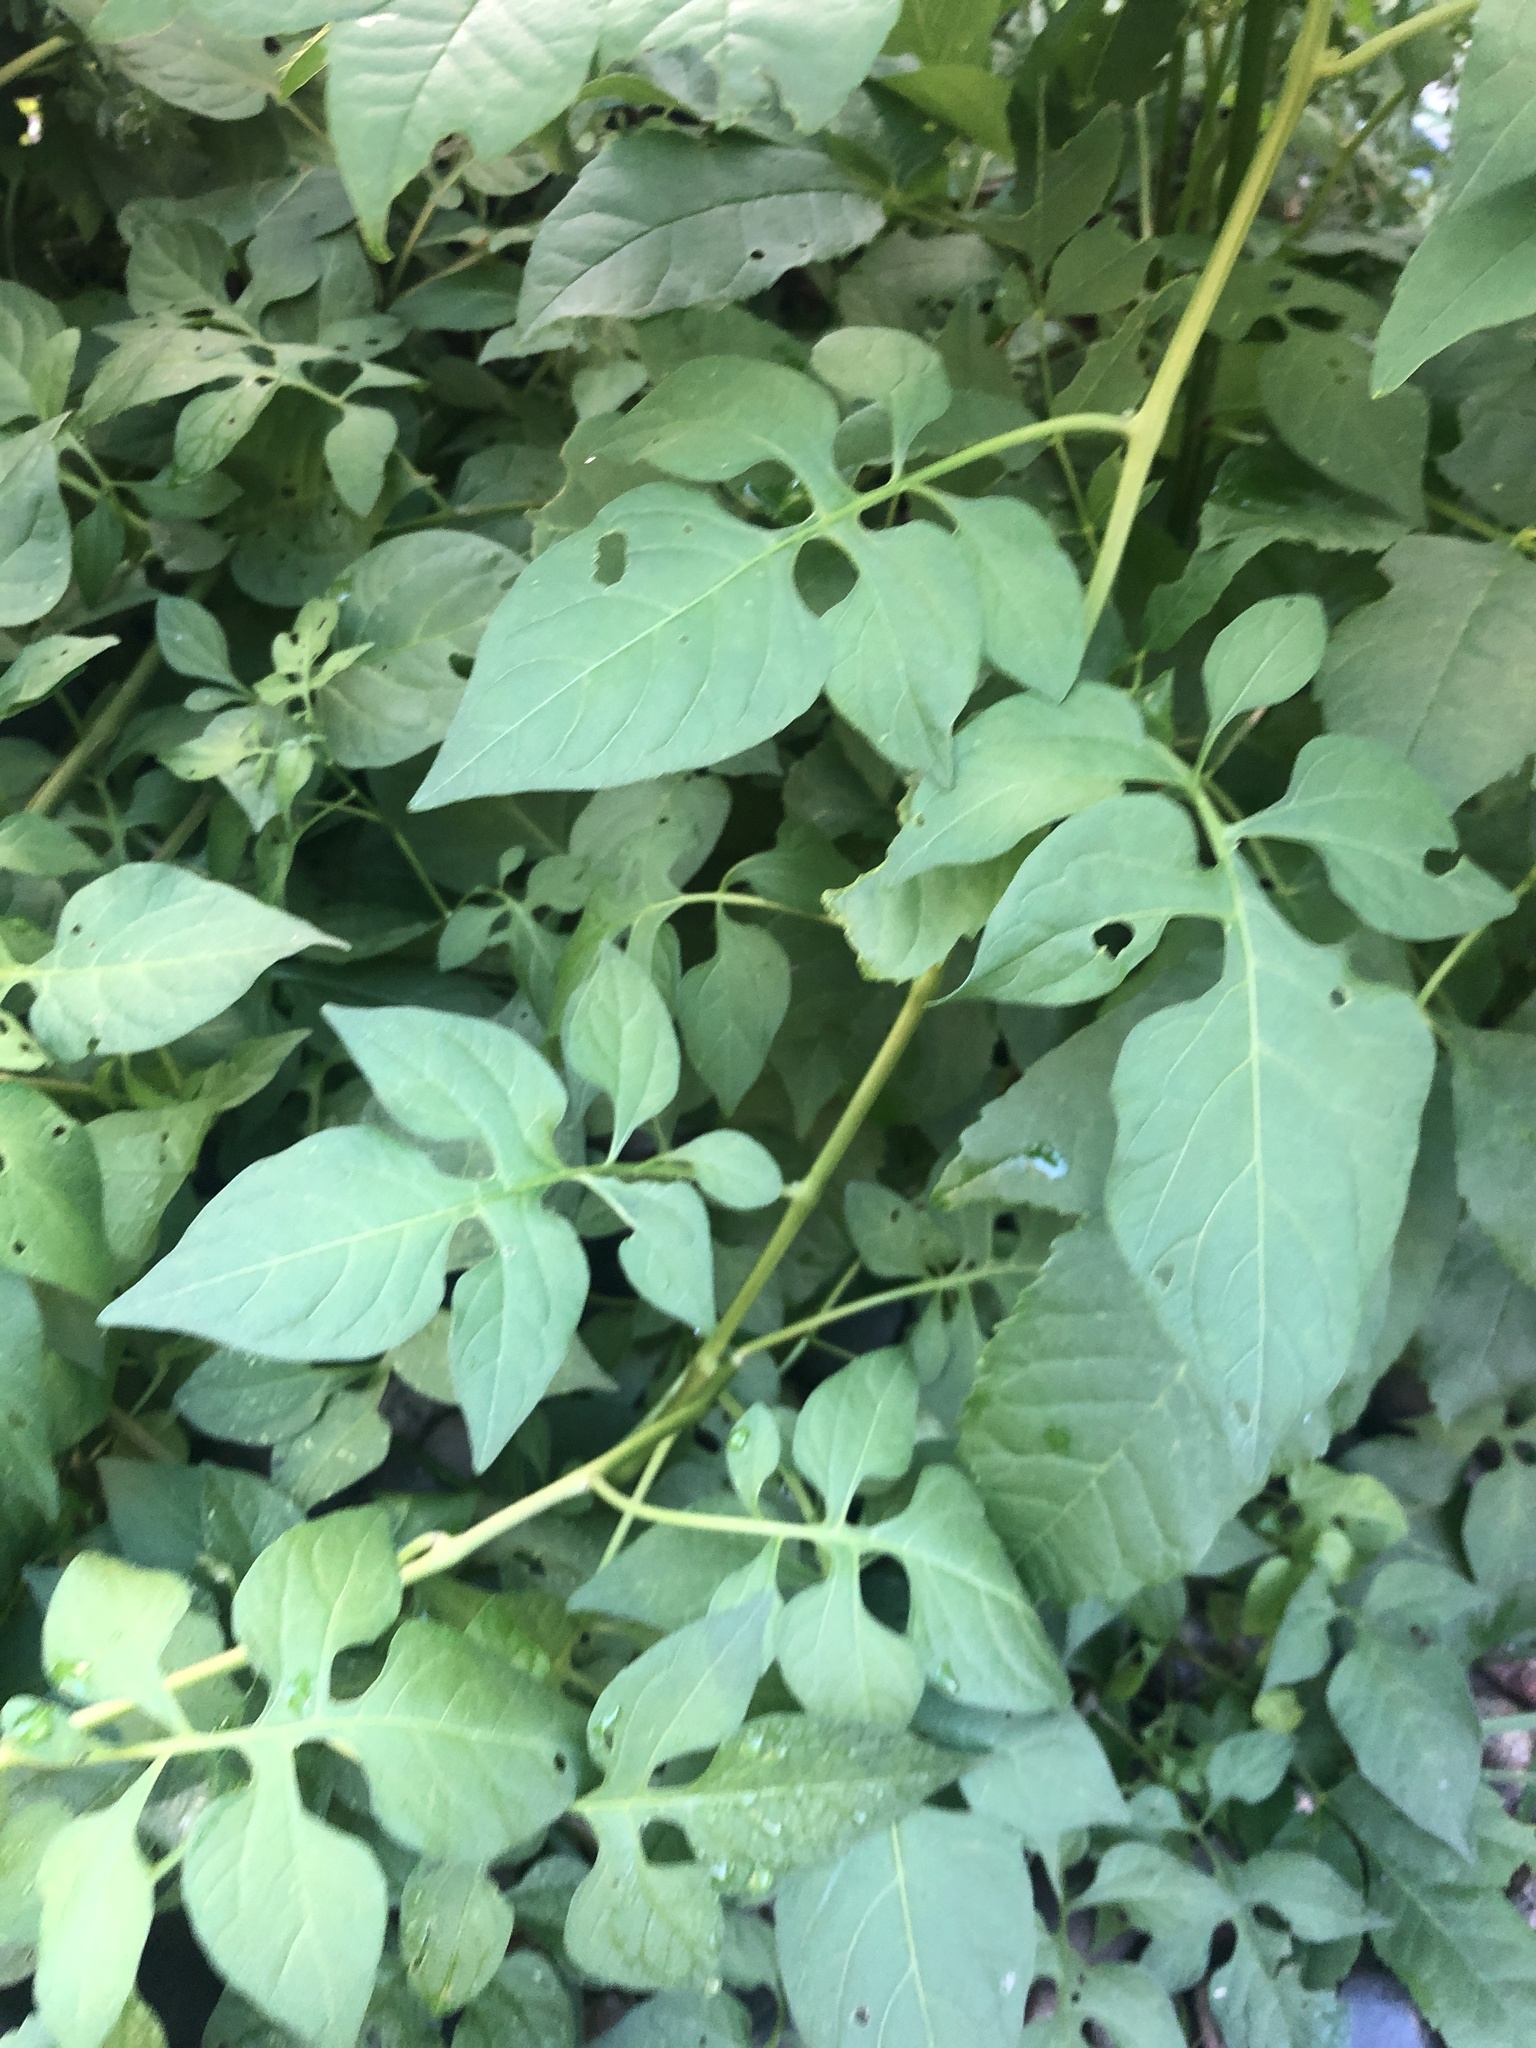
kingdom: Plantae
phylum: Tracheophyta
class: Magnoliopsida
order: Solanales
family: Solanaceae
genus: Solanum
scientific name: Solanum dulcamara
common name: Climbing nightshade
